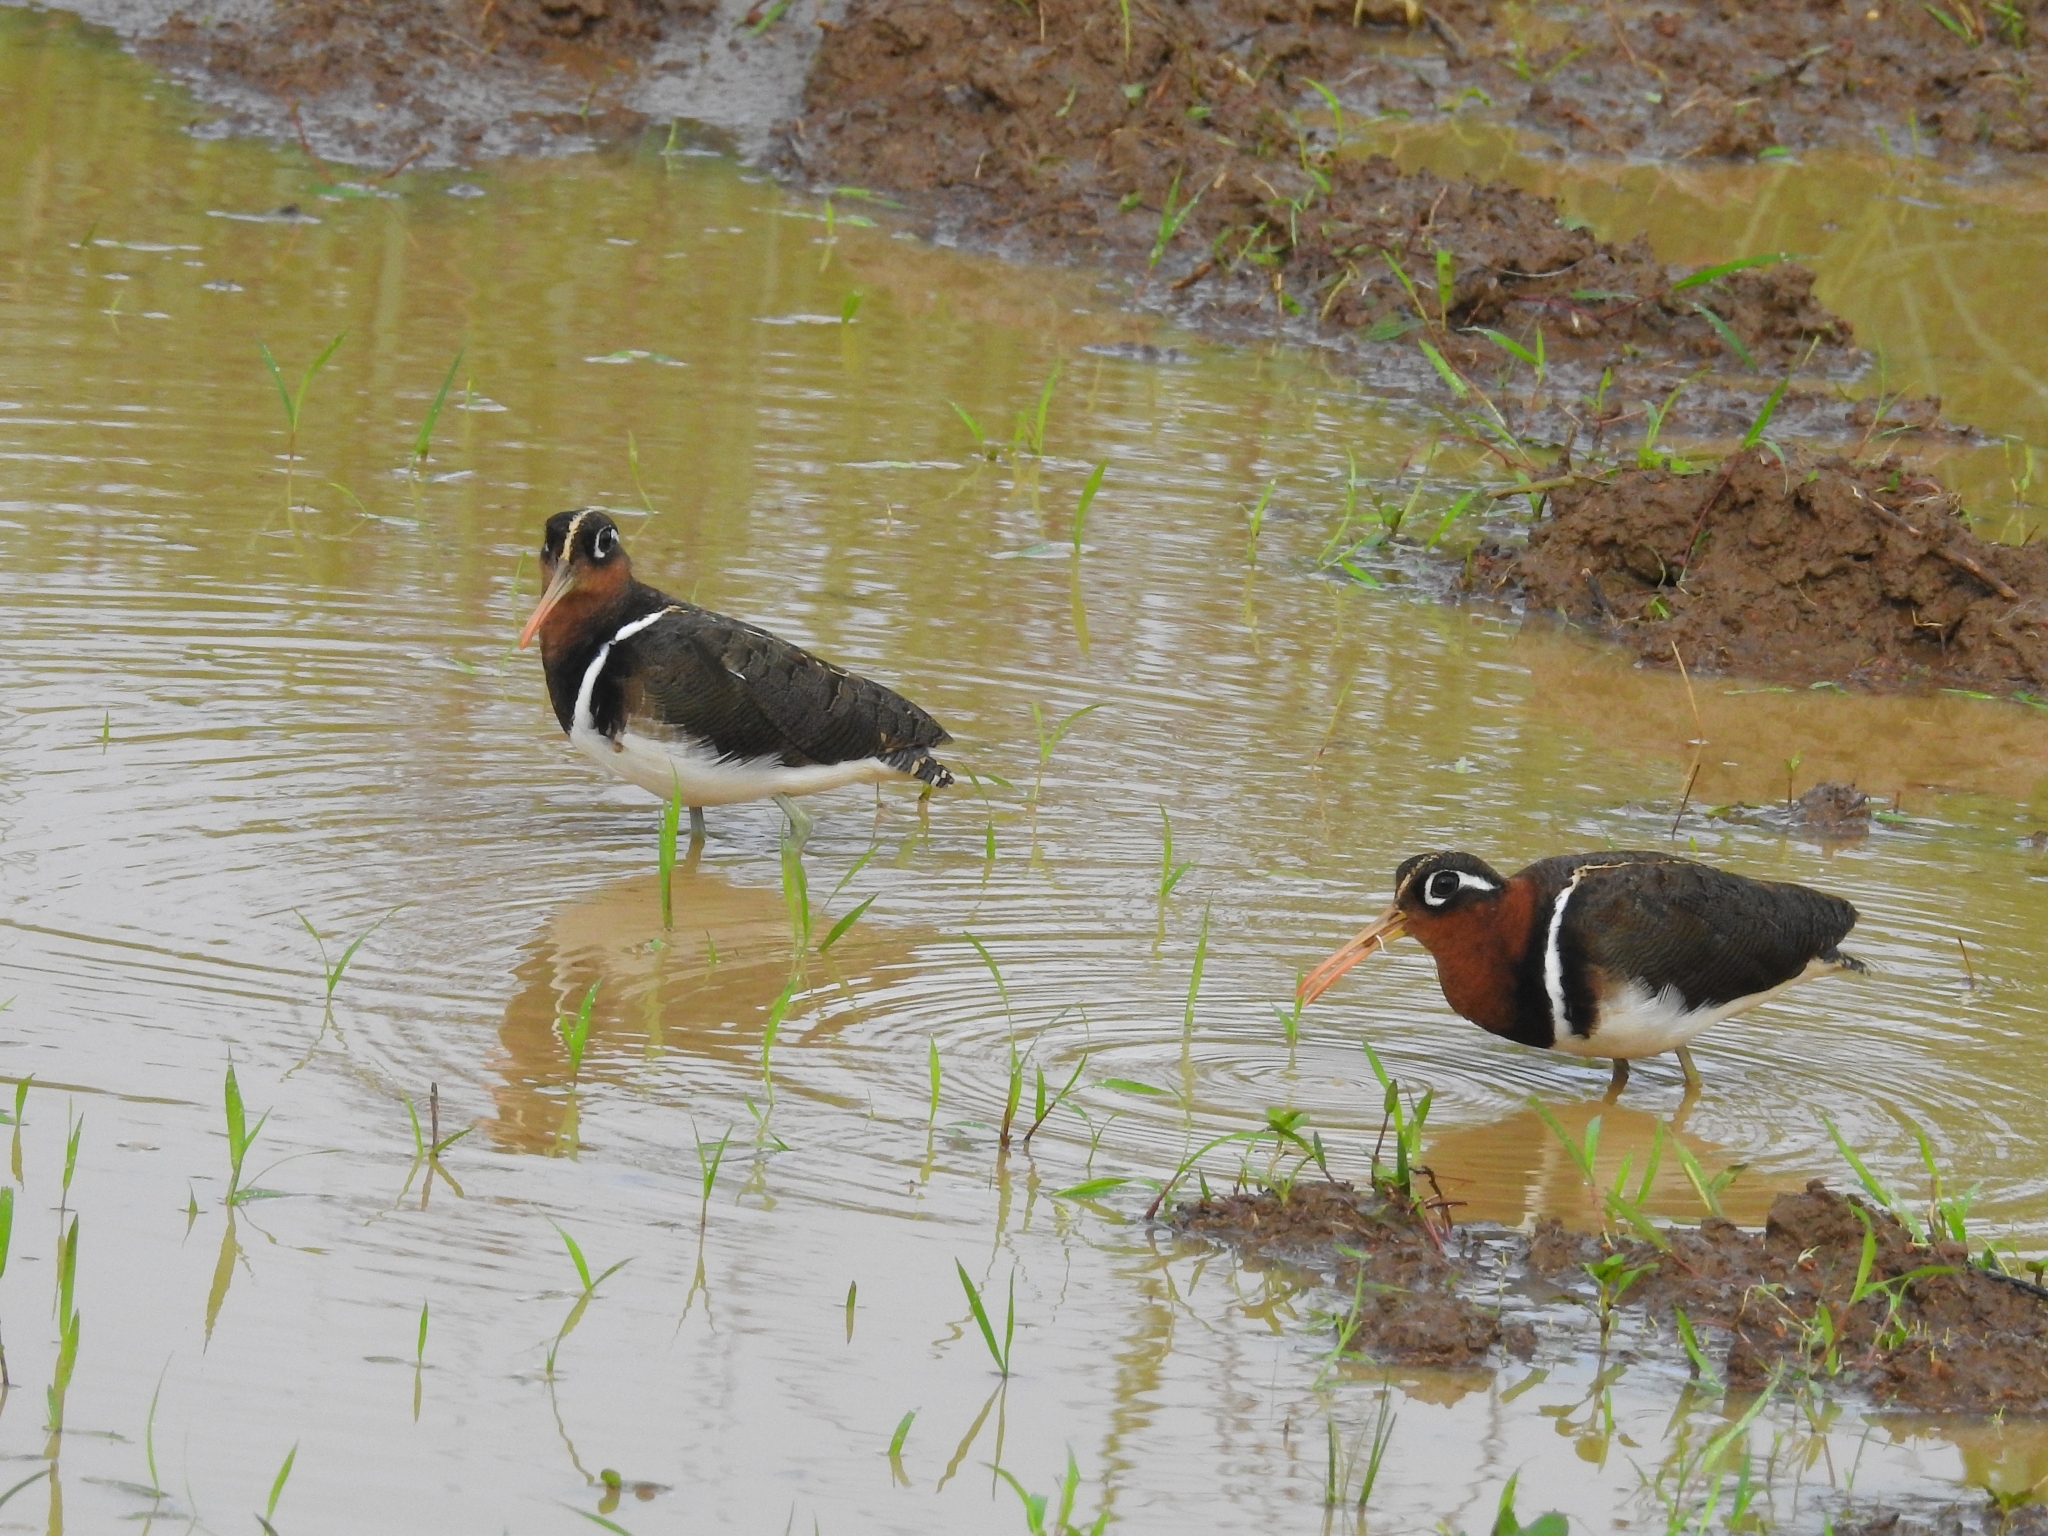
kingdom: Animalia
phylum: Chordata
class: Aves
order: Charadriiformes
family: Rostratulidae
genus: Rostratula
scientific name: Rostratula benghalensis
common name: Greater painted-snipe
